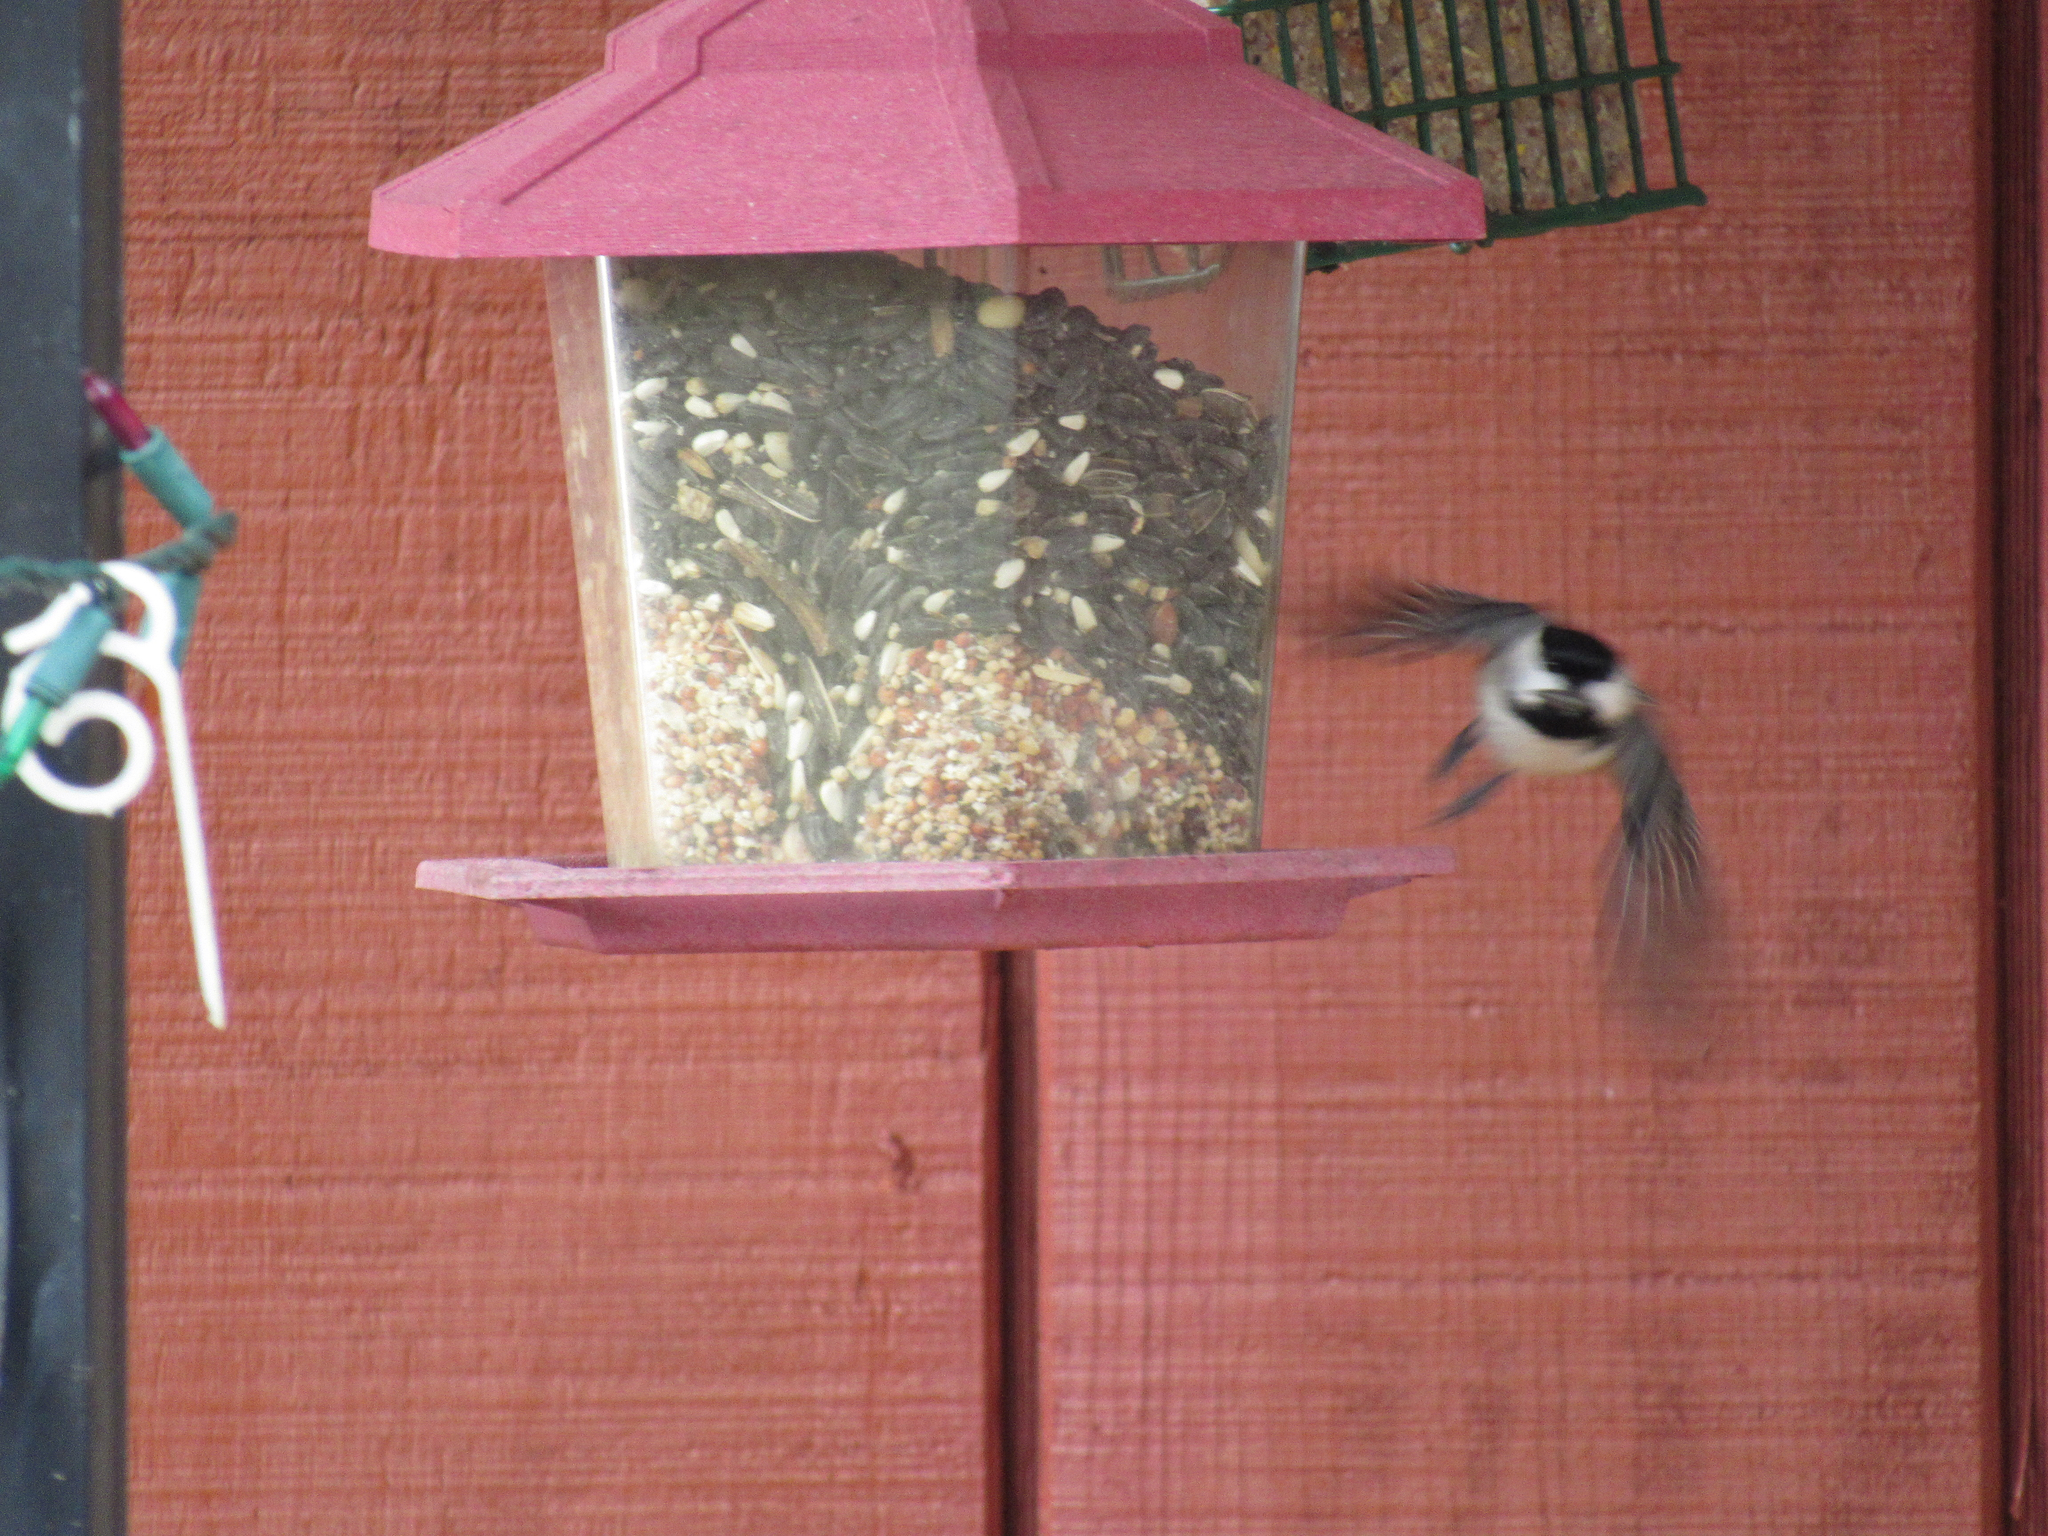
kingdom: Animalia
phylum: Chordata
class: Aves
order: Passeriformes
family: Paridae
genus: Poecile
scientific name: Poecile carolinensis
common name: Carolina chickadee
